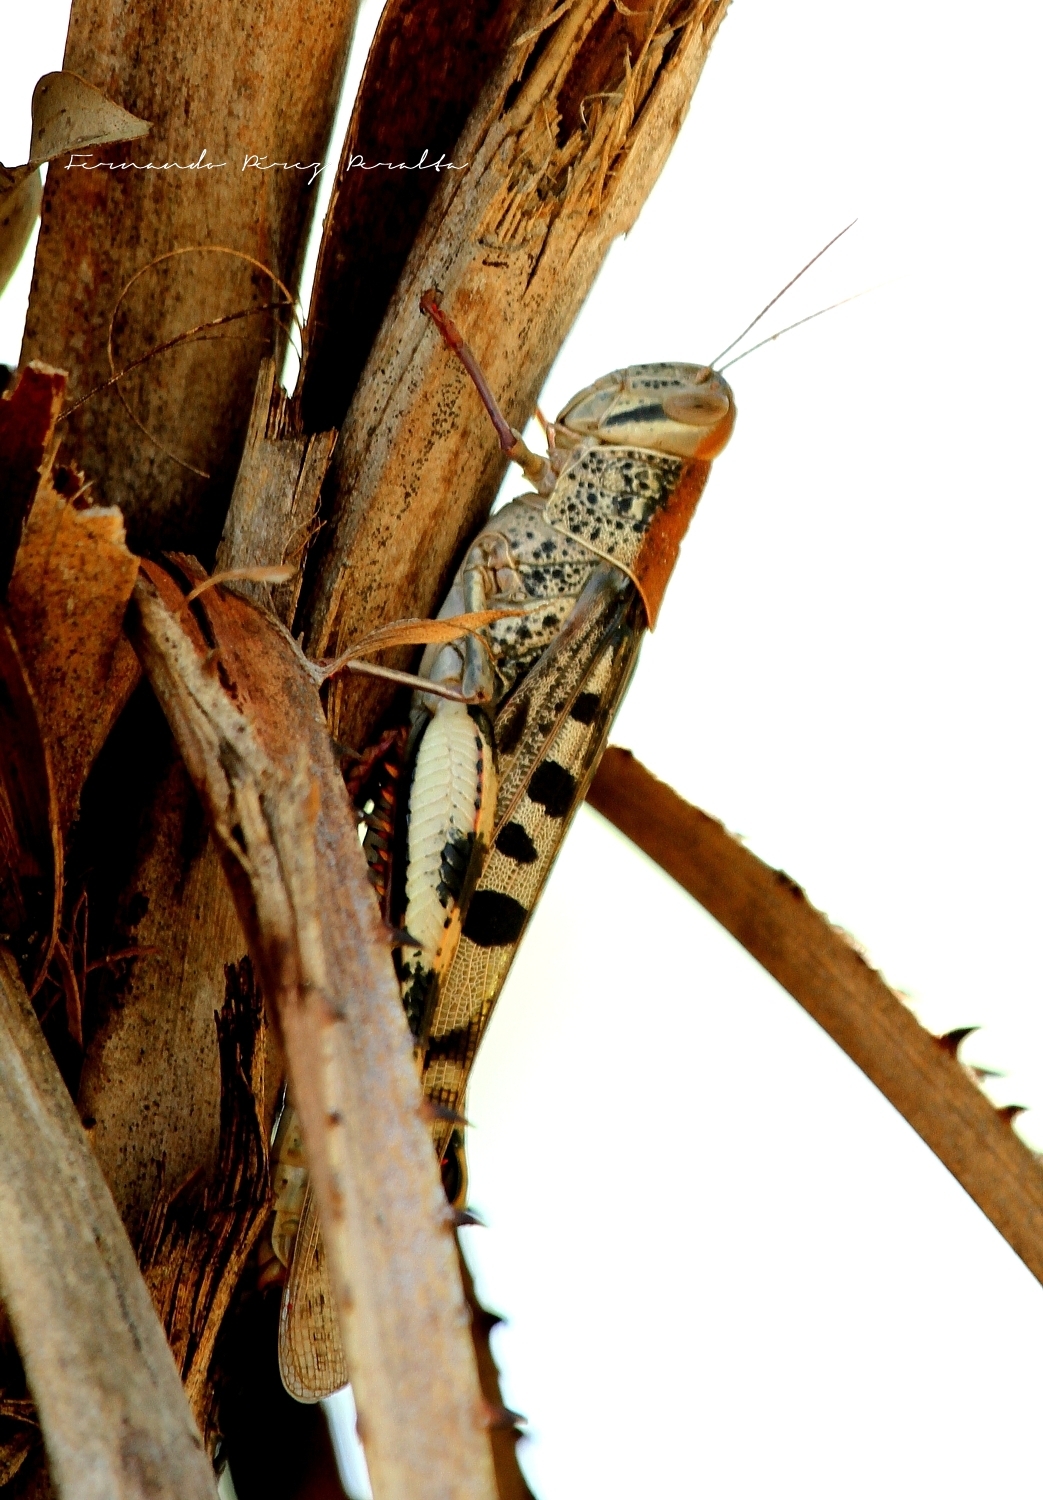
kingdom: Animalia
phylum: Arthropoda
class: Insecta
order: Orthoptera
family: Acrididae
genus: Austracris
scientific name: Austracris basalis
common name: Spotted spur-throated locust
